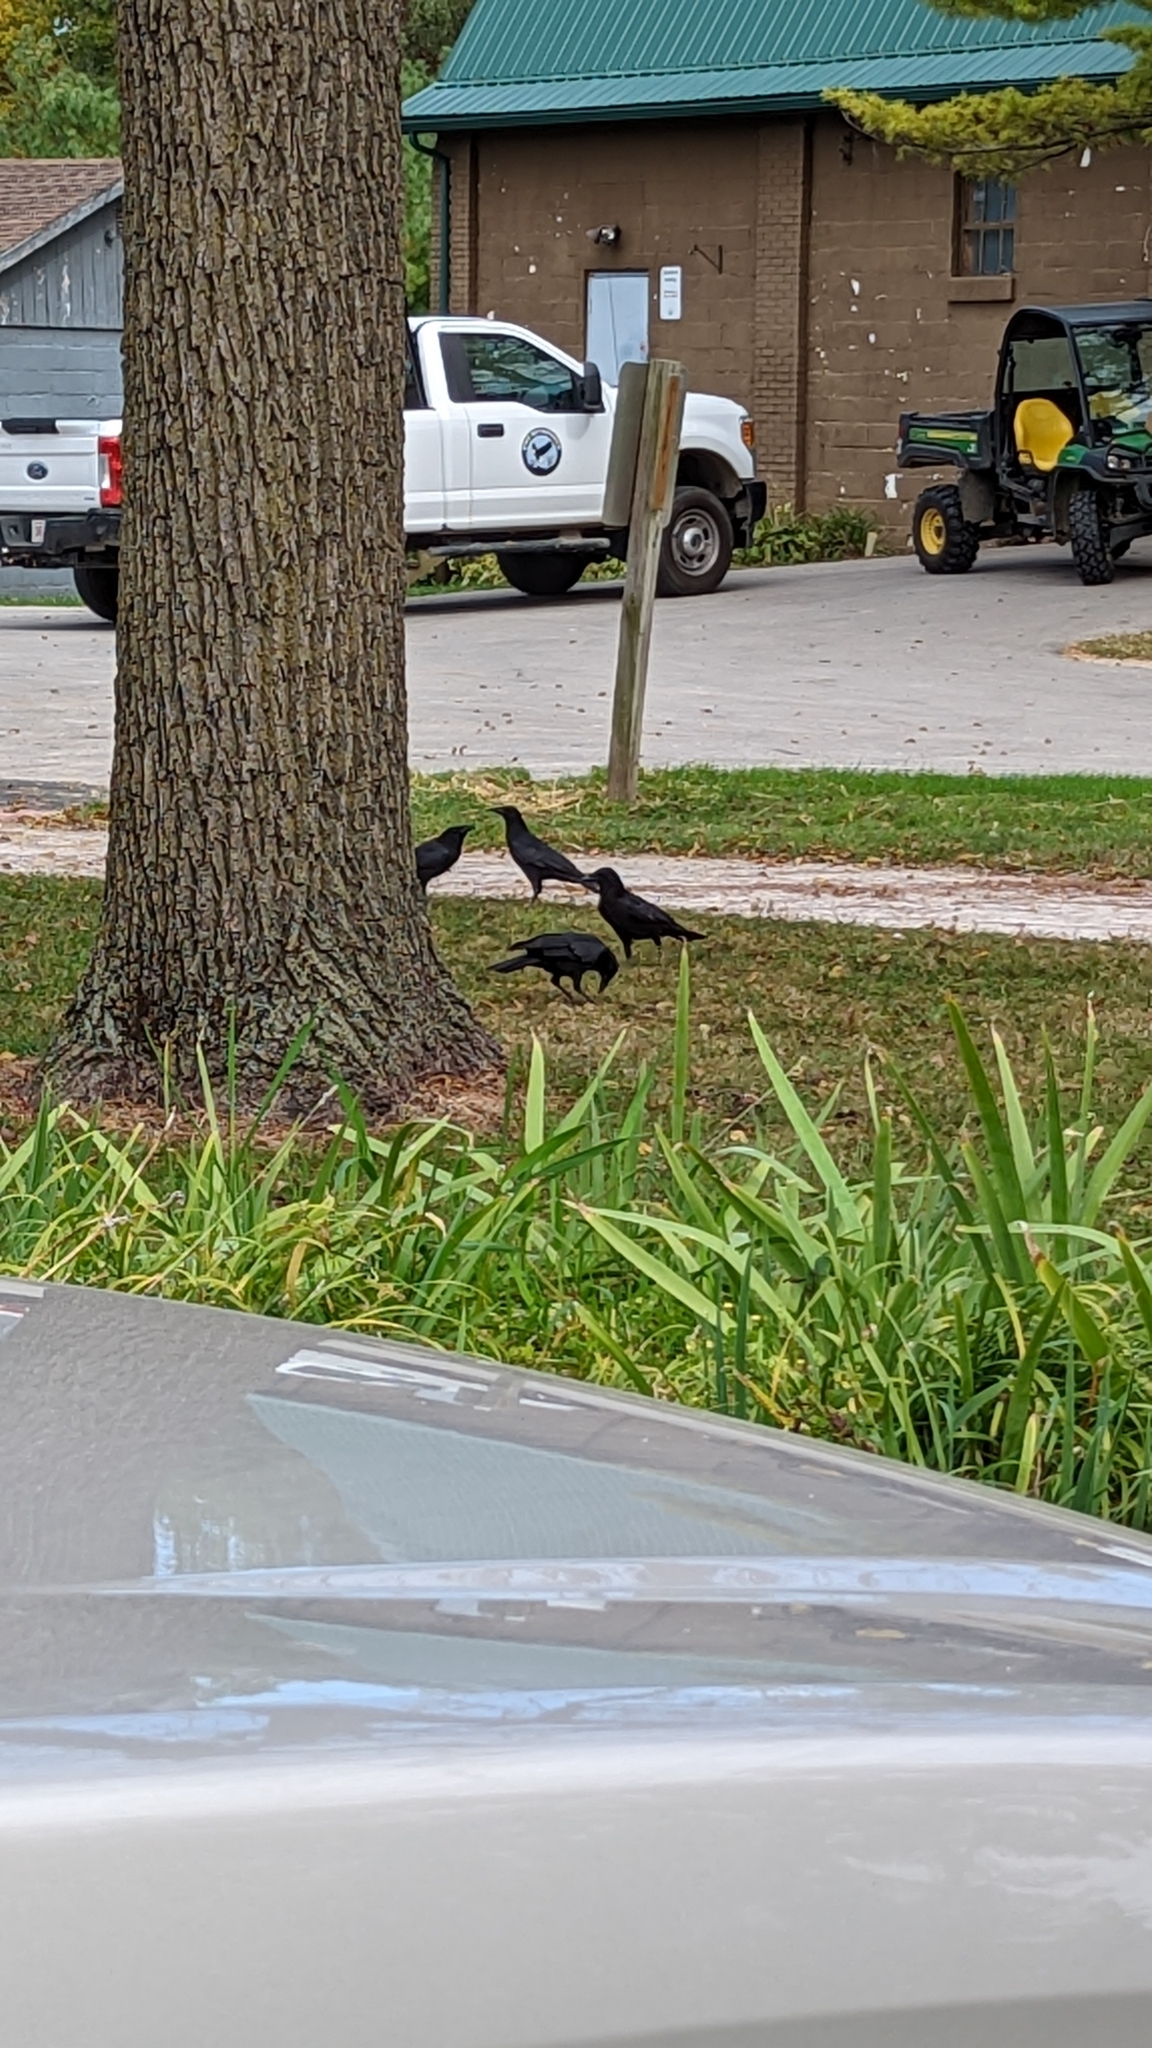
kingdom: Animalia
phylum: Chordata
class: Aves
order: Passeriformes
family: Corvidae
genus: Corvus
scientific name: Corvus brachyrhynchos
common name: American crow
